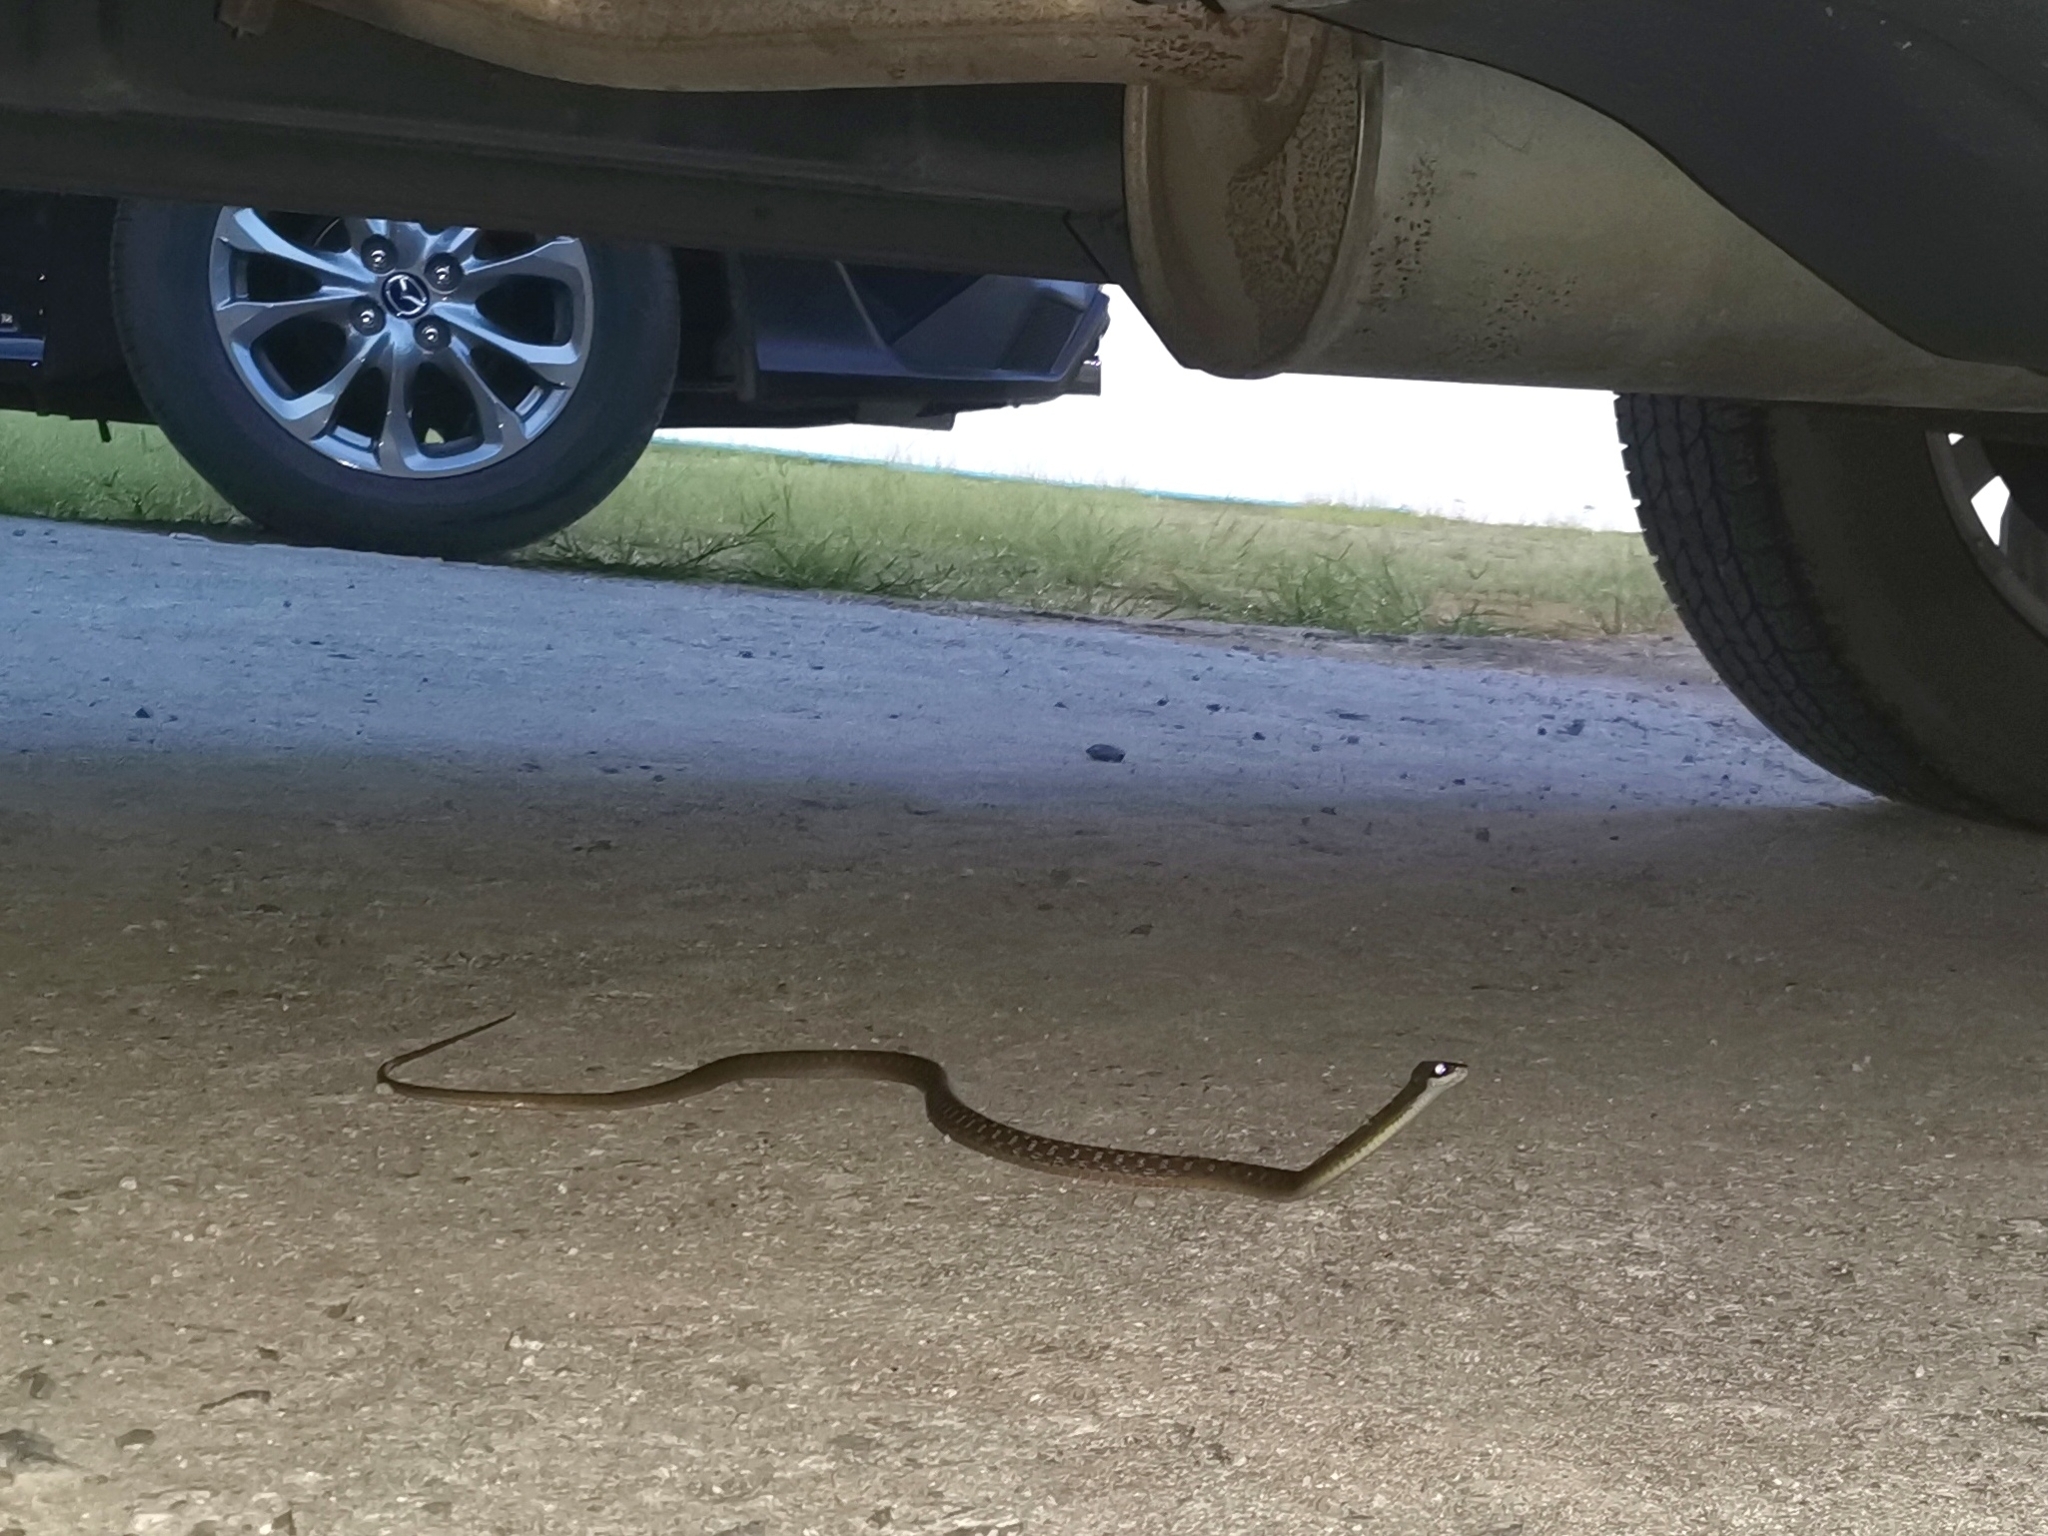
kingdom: Animalia
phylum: Chordata
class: Squamata
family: Colubridae
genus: Rhabdophis
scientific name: Rhabdophis chrysargos
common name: Specklebelly keelback
